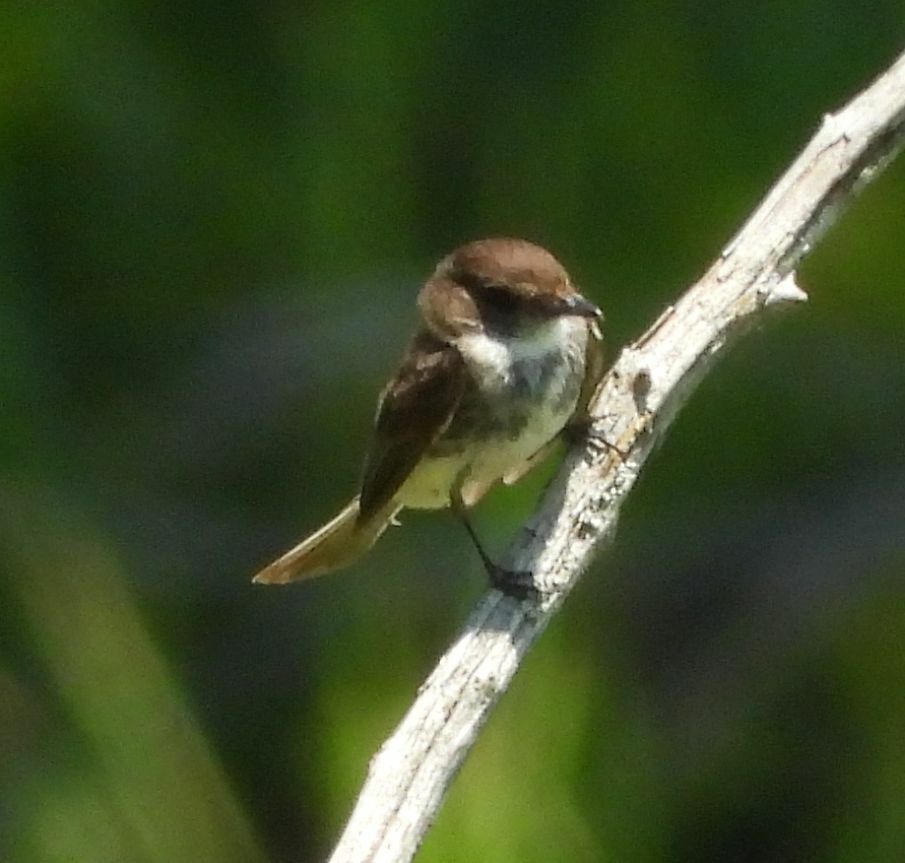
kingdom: Animalia
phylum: Chordata
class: Aves
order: Passeriformes
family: Tyrannidae
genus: Sayornis
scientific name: Sayornis phoebe
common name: Eastern phoebe
